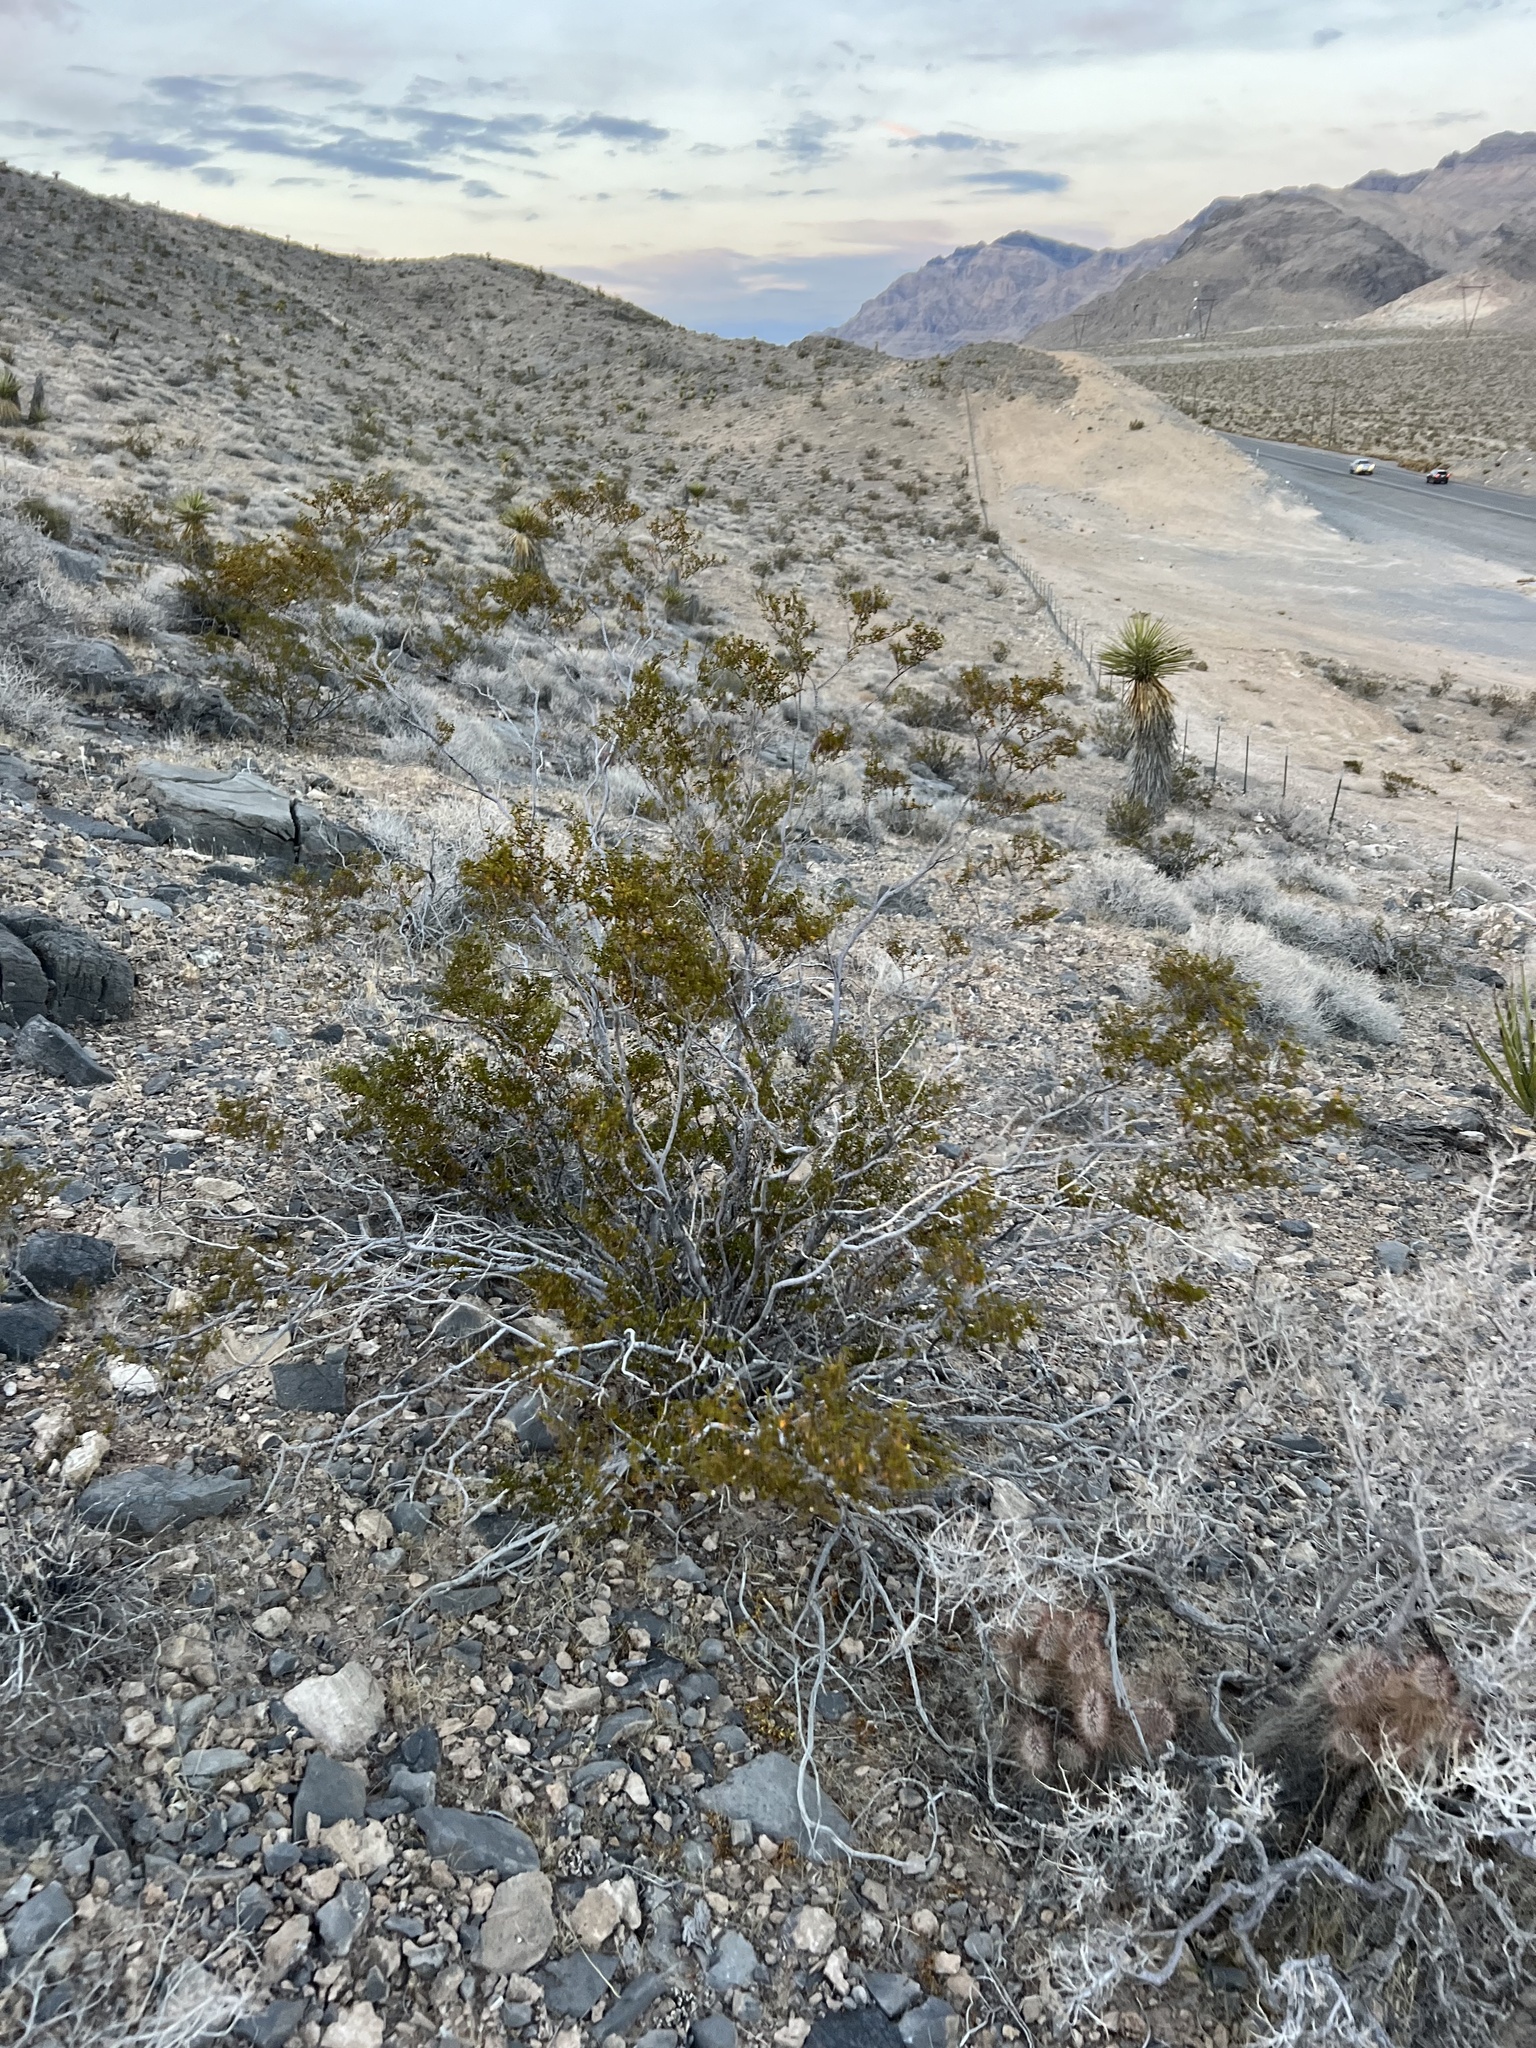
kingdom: Plantae
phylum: Tracheophyta
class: Magnoliopsida
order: Zygophyllales
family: Zygophyllaceae
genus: Larrea
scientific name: Larrea tridentata
